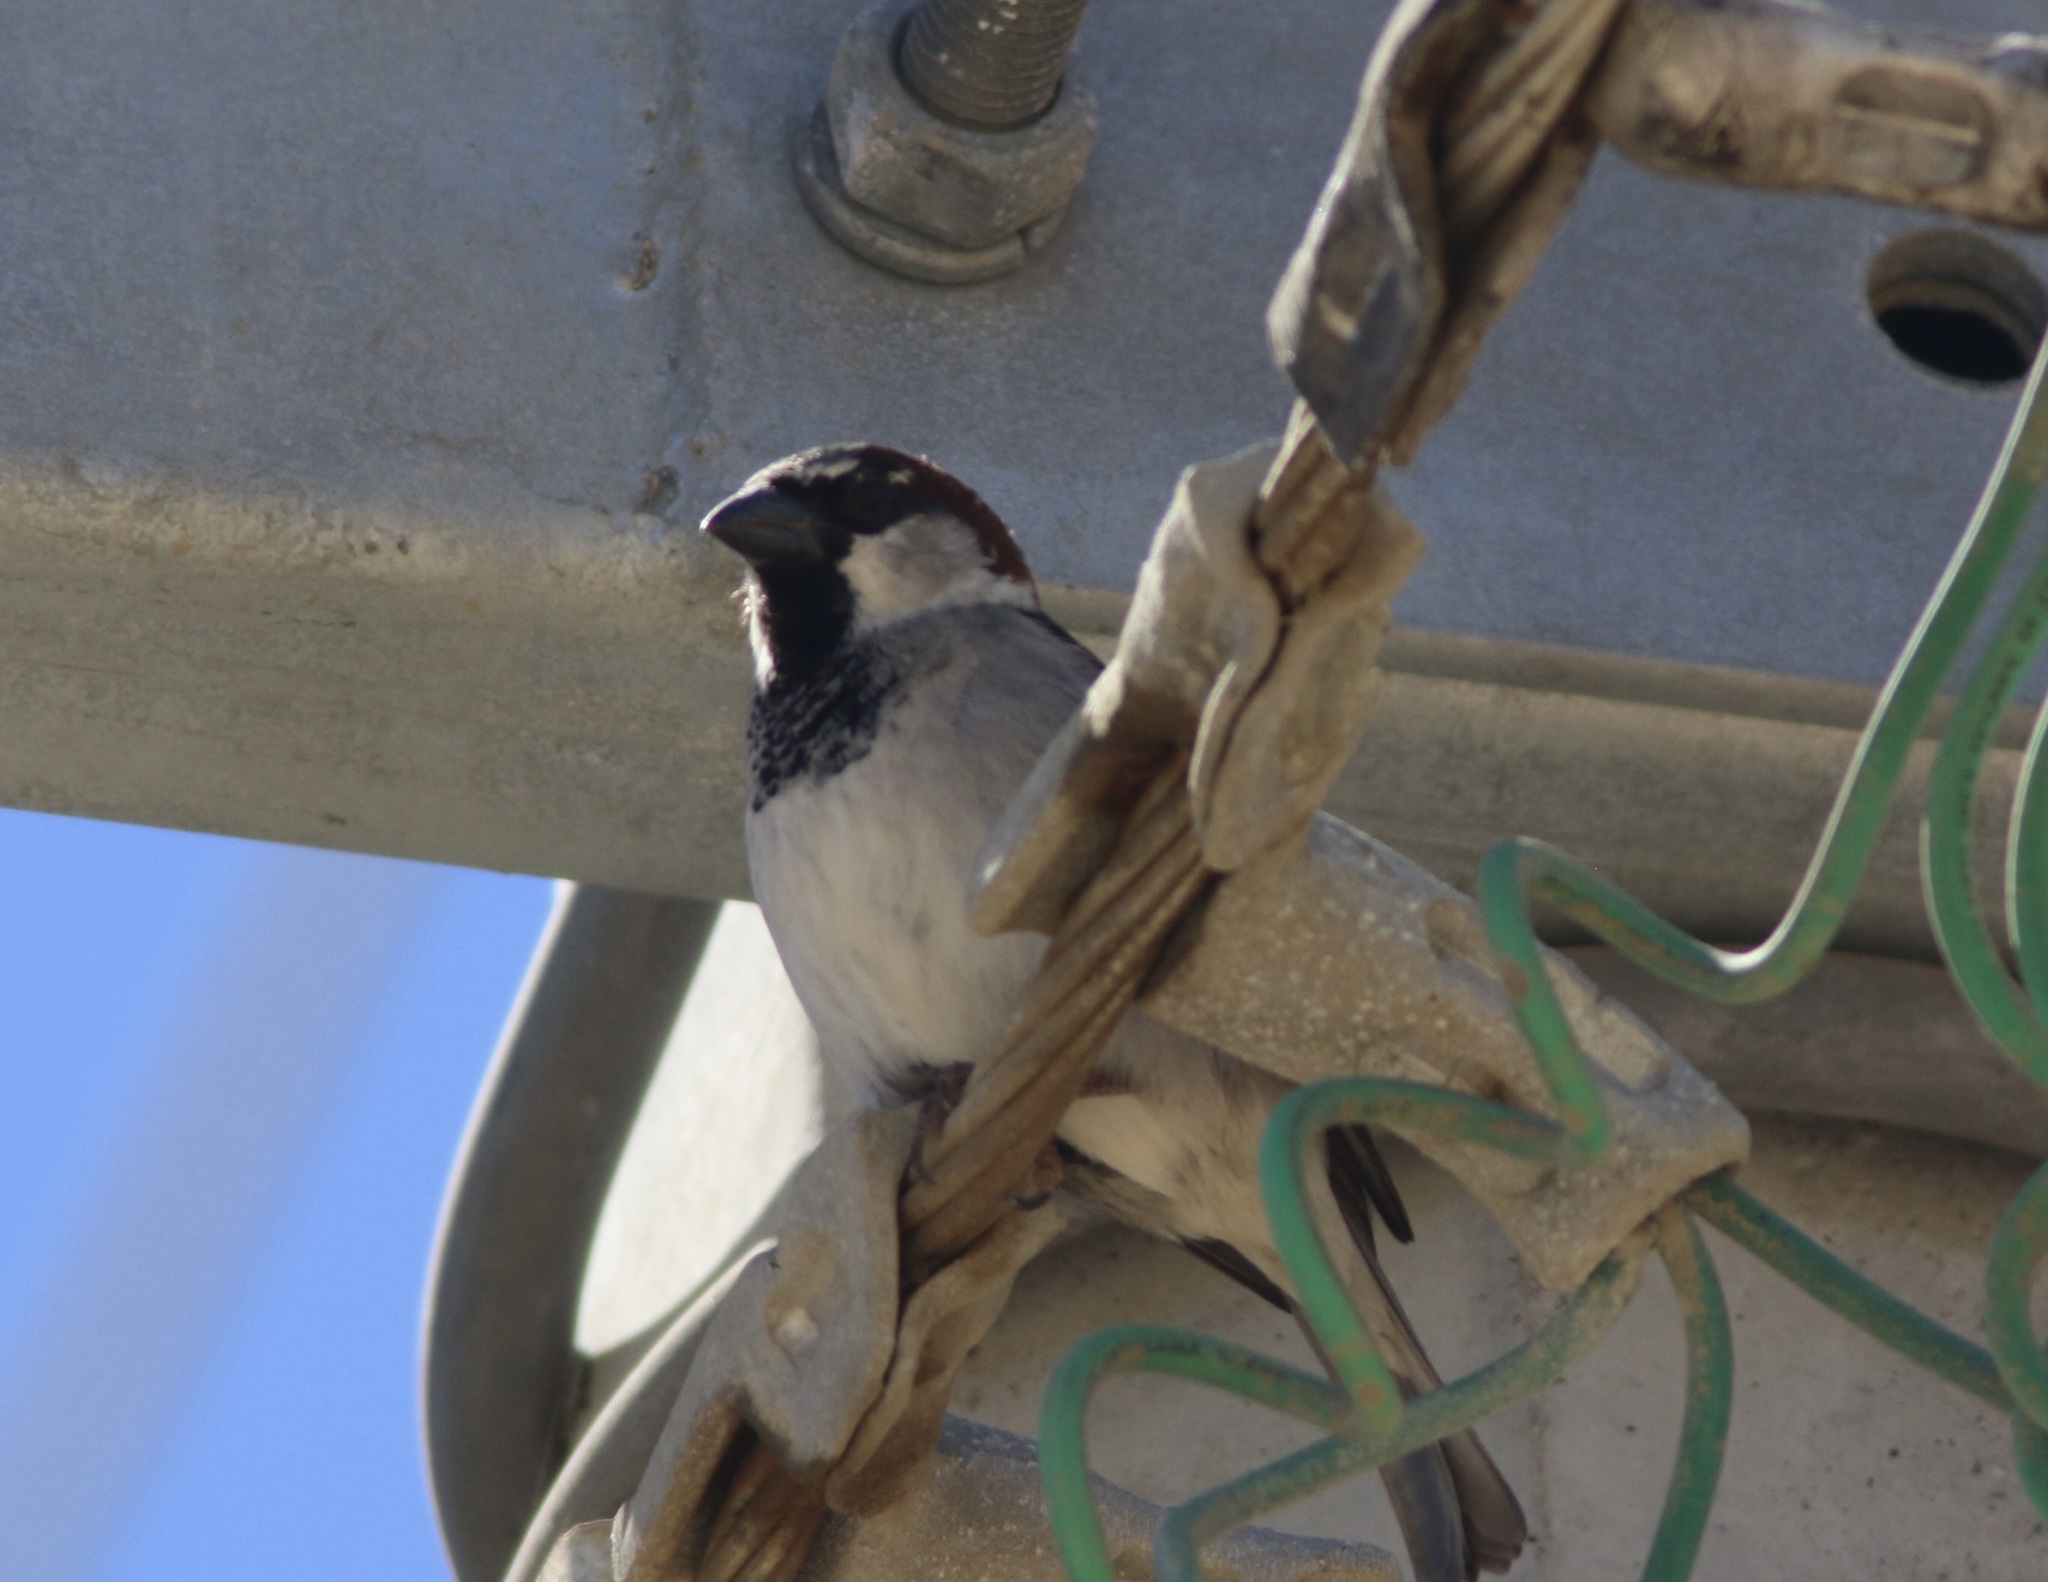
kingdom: Animalia
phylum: Chordata
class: Aves
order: Passeriformes
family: Passeridae
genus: Passer
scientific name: Passer domesticus
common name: House sparrow
